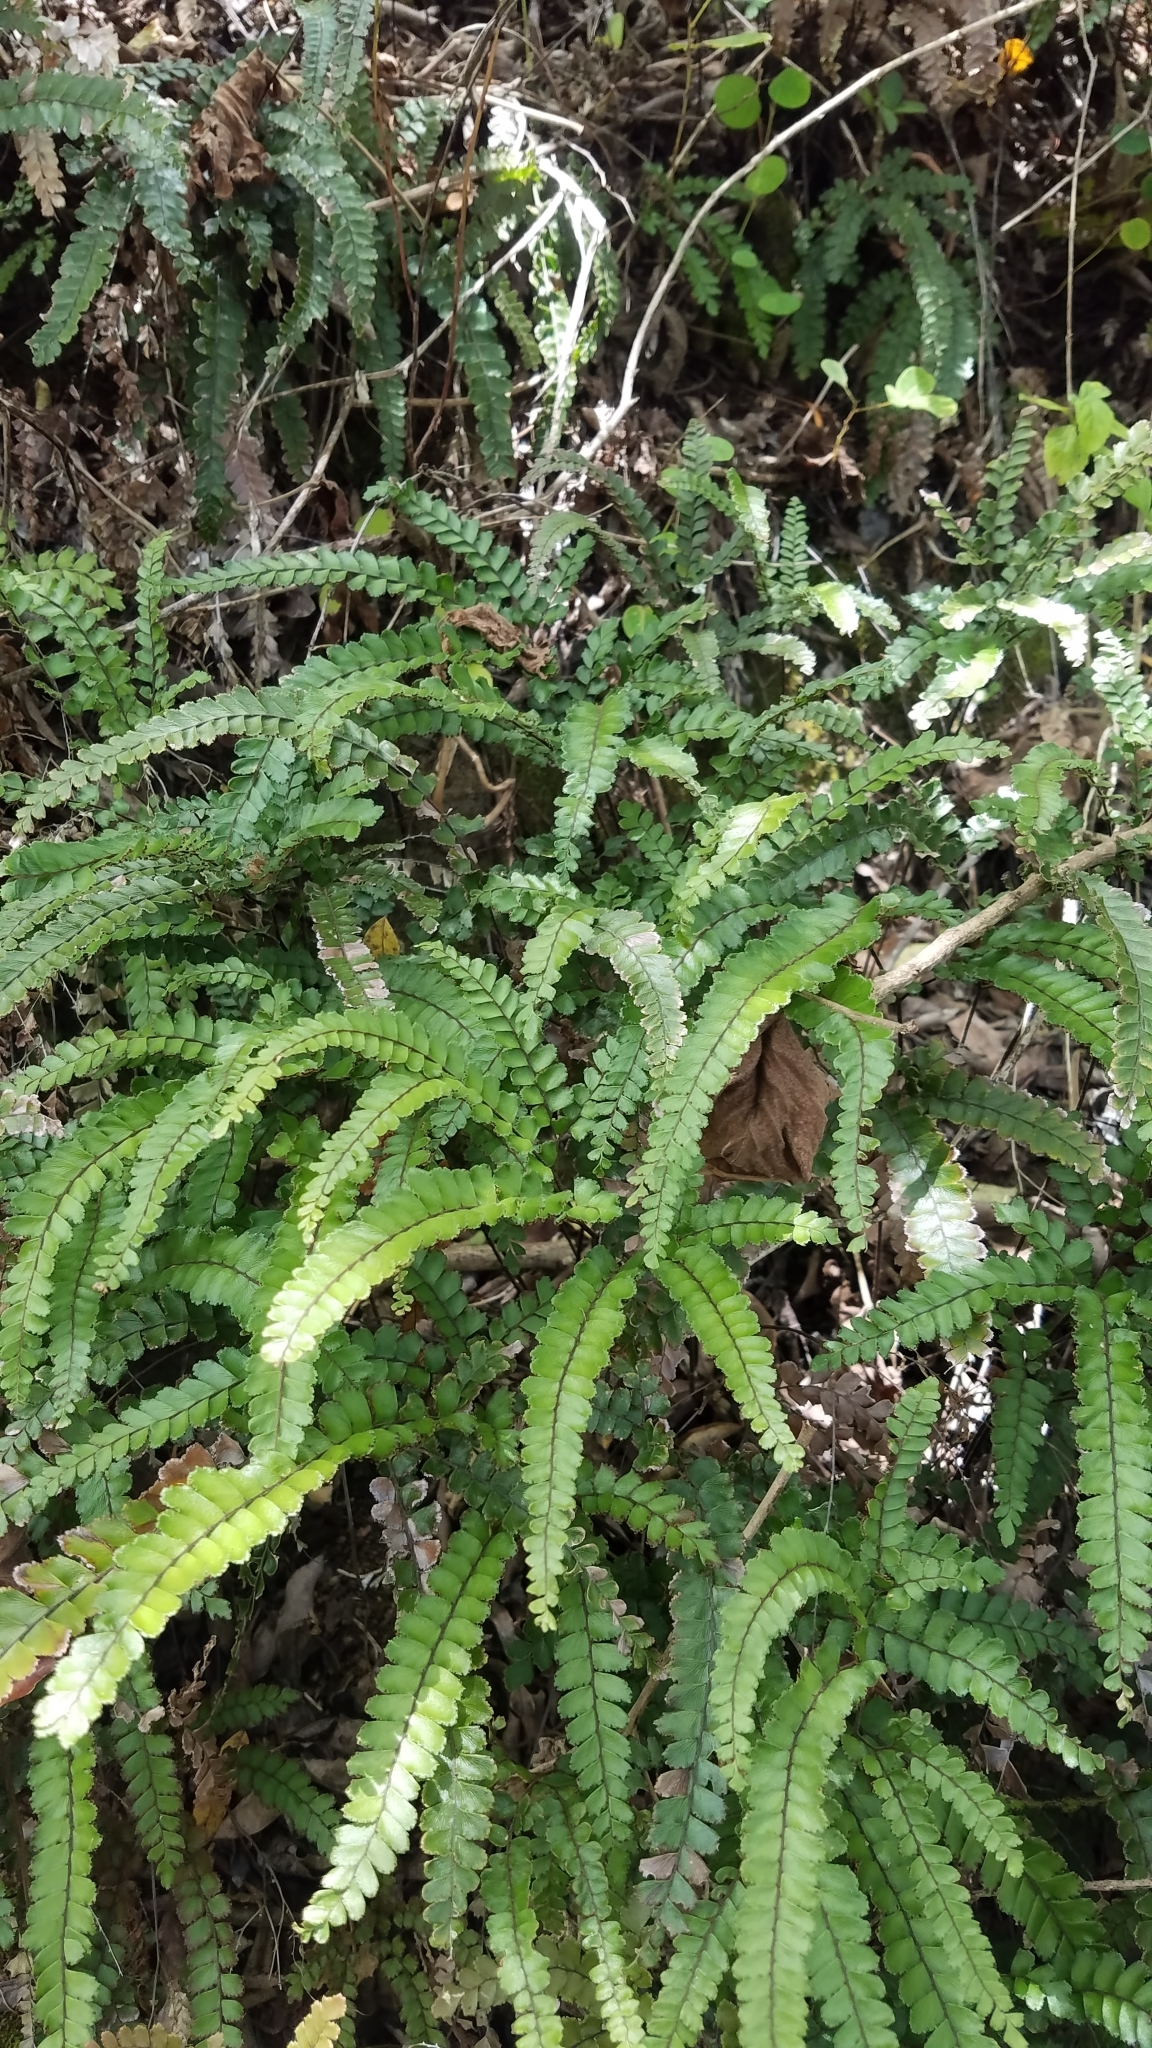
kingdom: Plantae
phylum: Tracheophyta
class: Polypodiopsida
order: Polypodiales
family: Pteridaceae
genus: Adiantum
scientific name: Adiantum hispidulum
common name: Rough maidenhair
